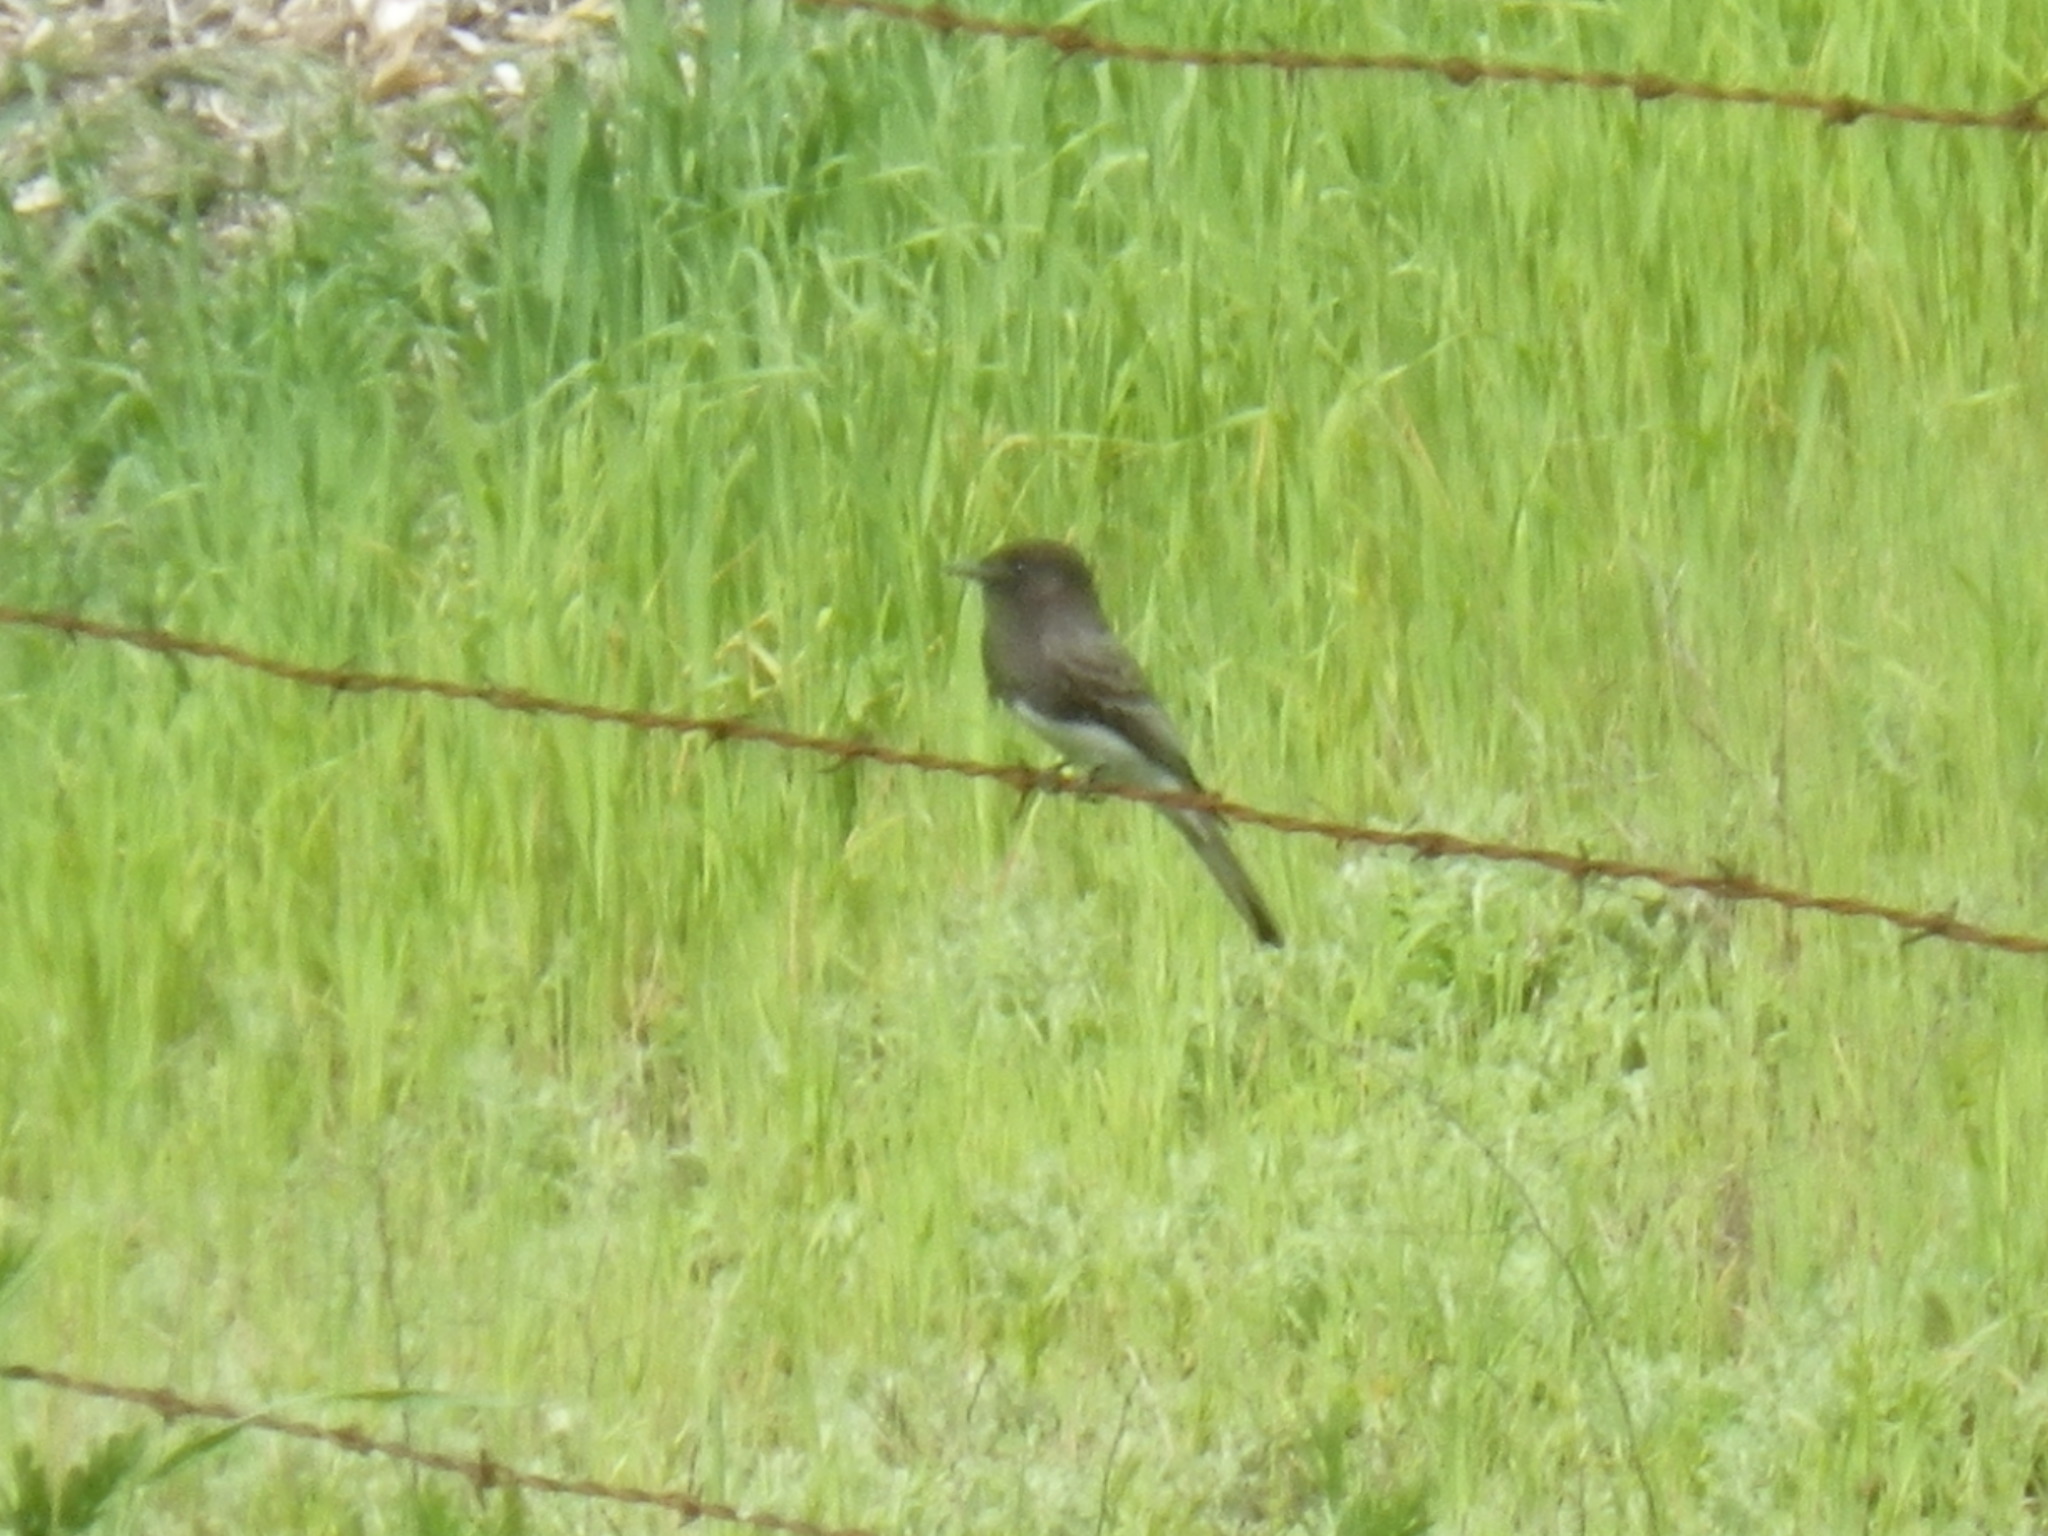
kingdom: Animalia
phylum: Chordata
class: Aves
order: Passeriformes
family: Tyrannidae
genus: Sayornis
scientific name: Sayornis nigricans
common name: Black phoebe
